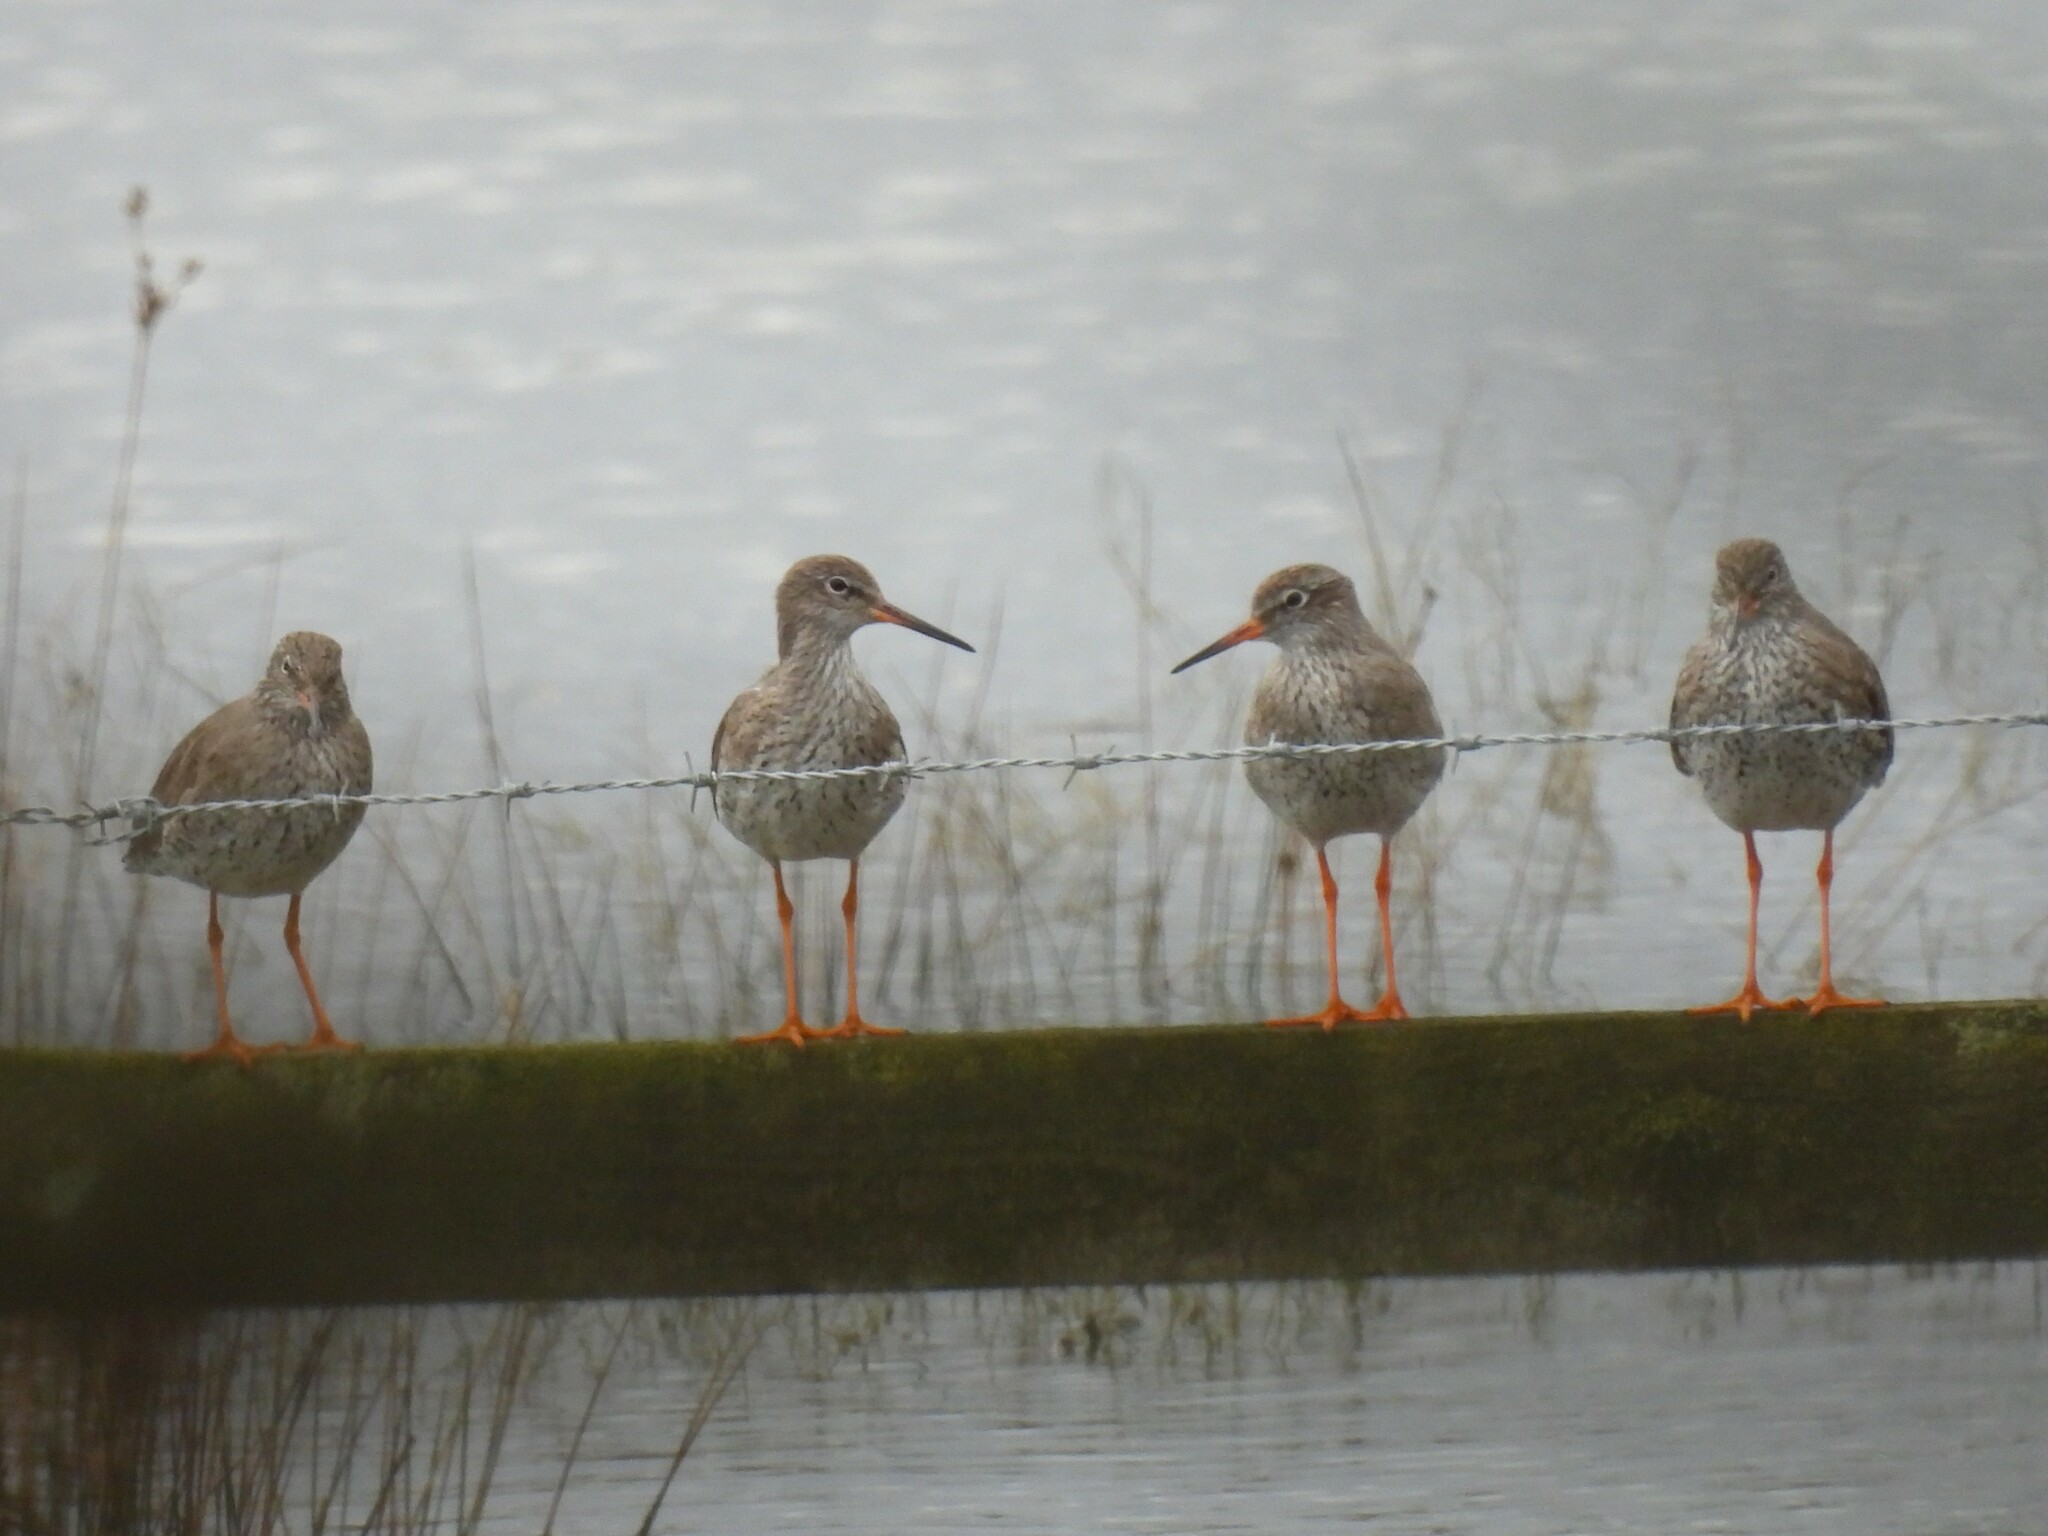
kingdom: Animalia
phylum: Chordata
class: Aves
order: Charadriiformes
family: Scolopacidae
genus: Tringa
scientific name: Tringa totanus
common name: Common redshank
